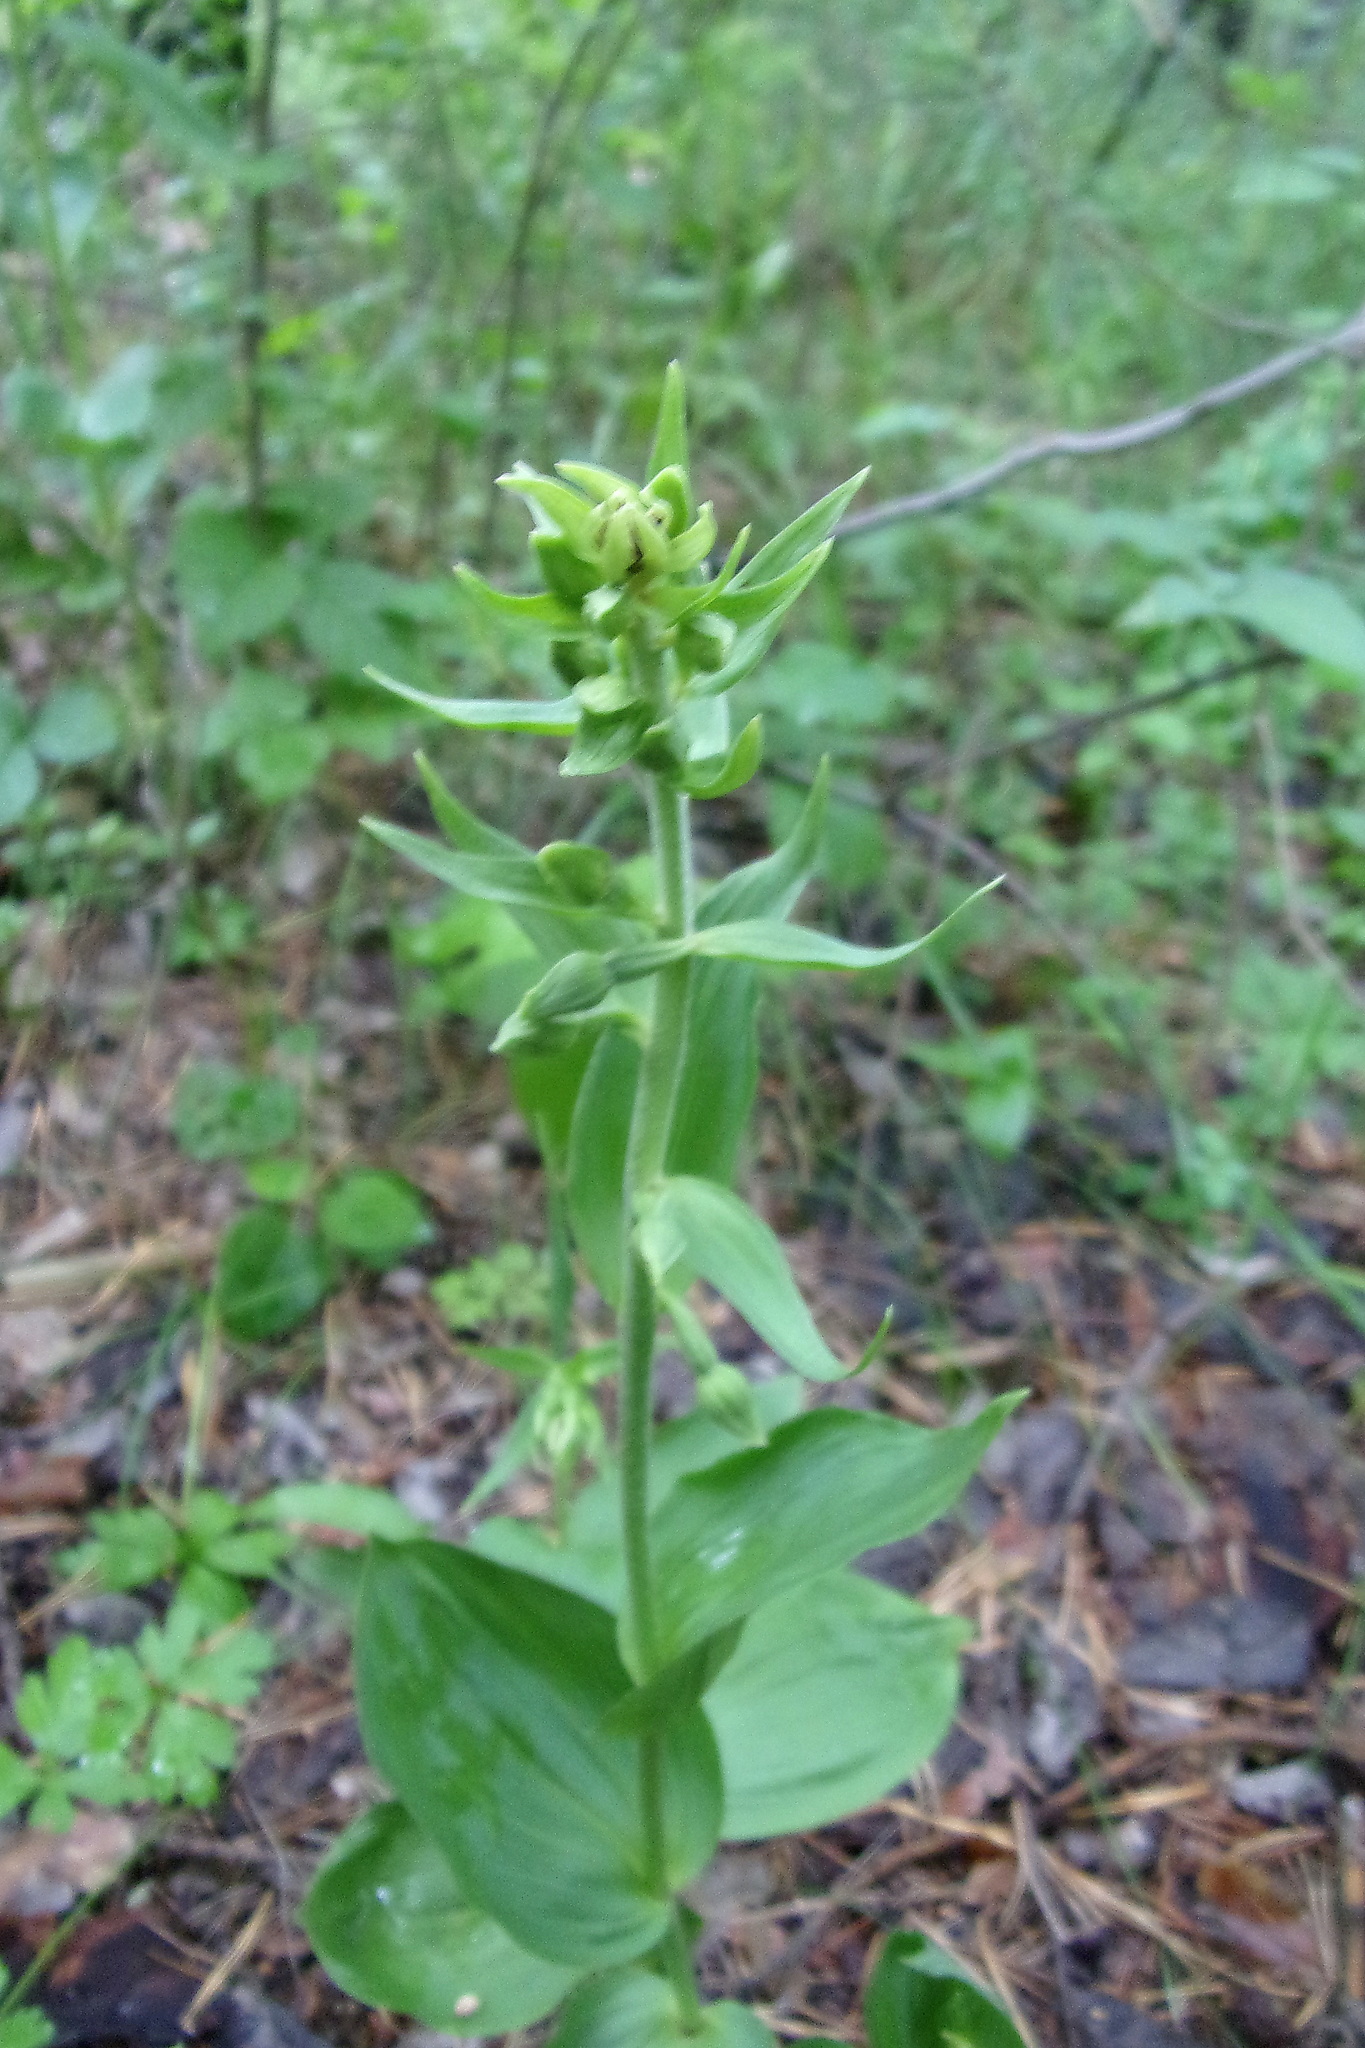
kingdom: Plantae
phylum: Tracheophyta
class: Liliopsida
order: Asparagales
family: Orchidaceae
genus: Epipactis
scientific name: Epipactis helleborine
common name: Broad-leaved helleborine
